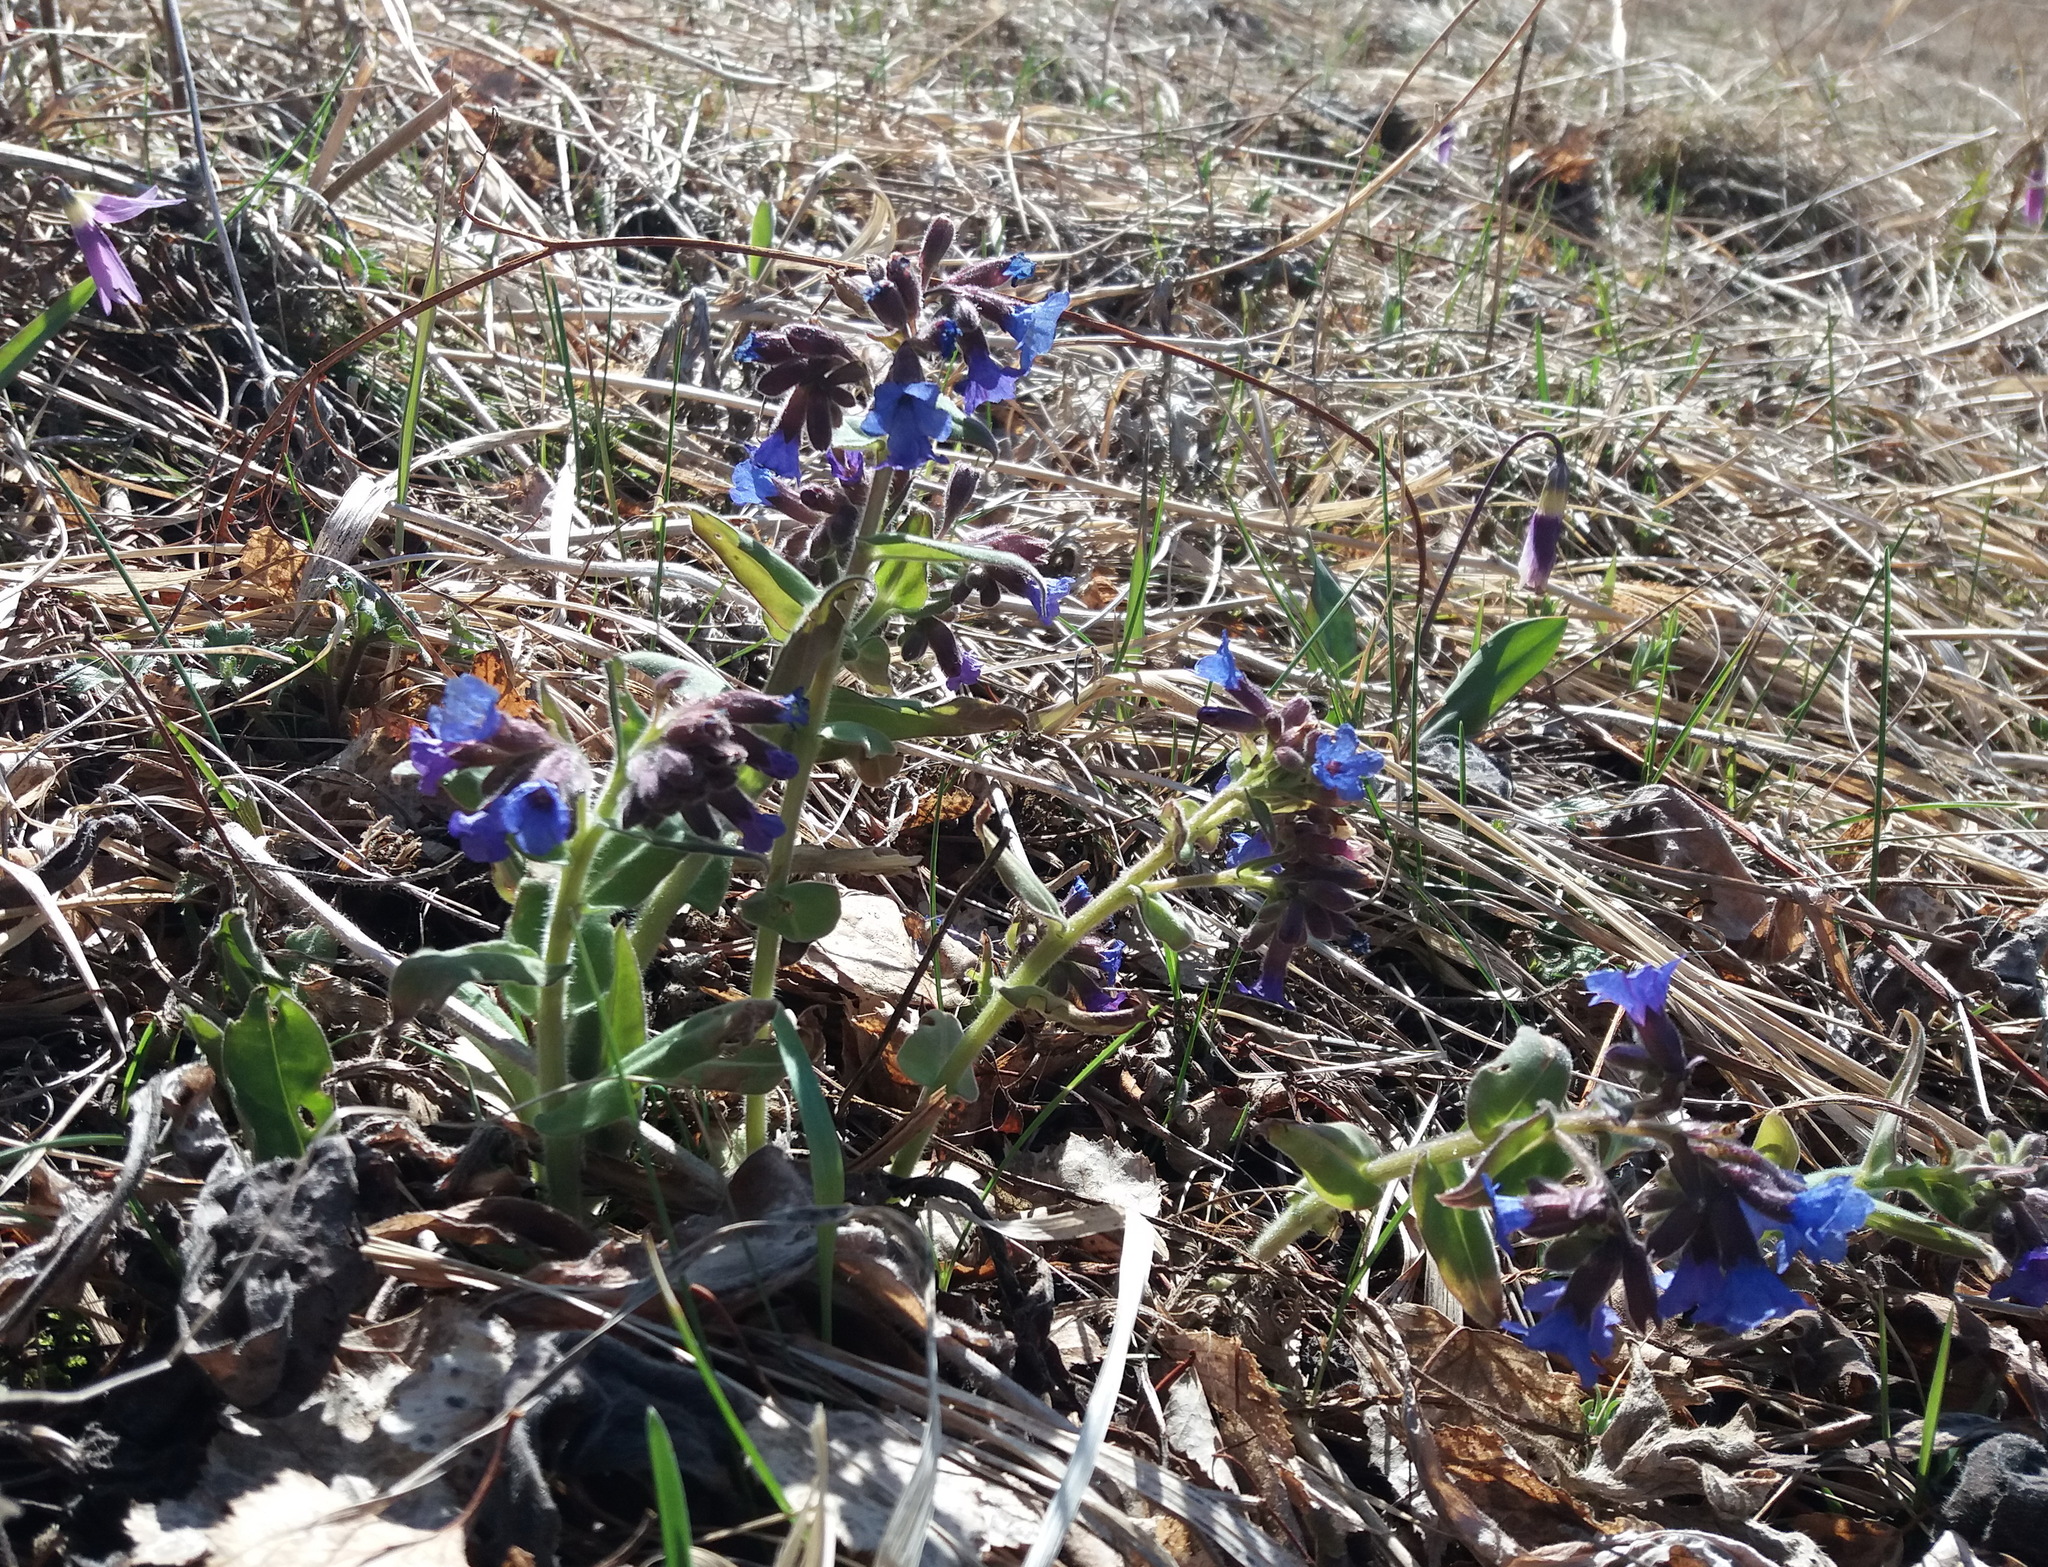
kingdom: Plantae
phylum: Tracheophyta
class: Magnoliopsida
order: Boraginales
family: Boraginaceae
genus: Pulmonaria
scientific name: Pulmonaria mollis
